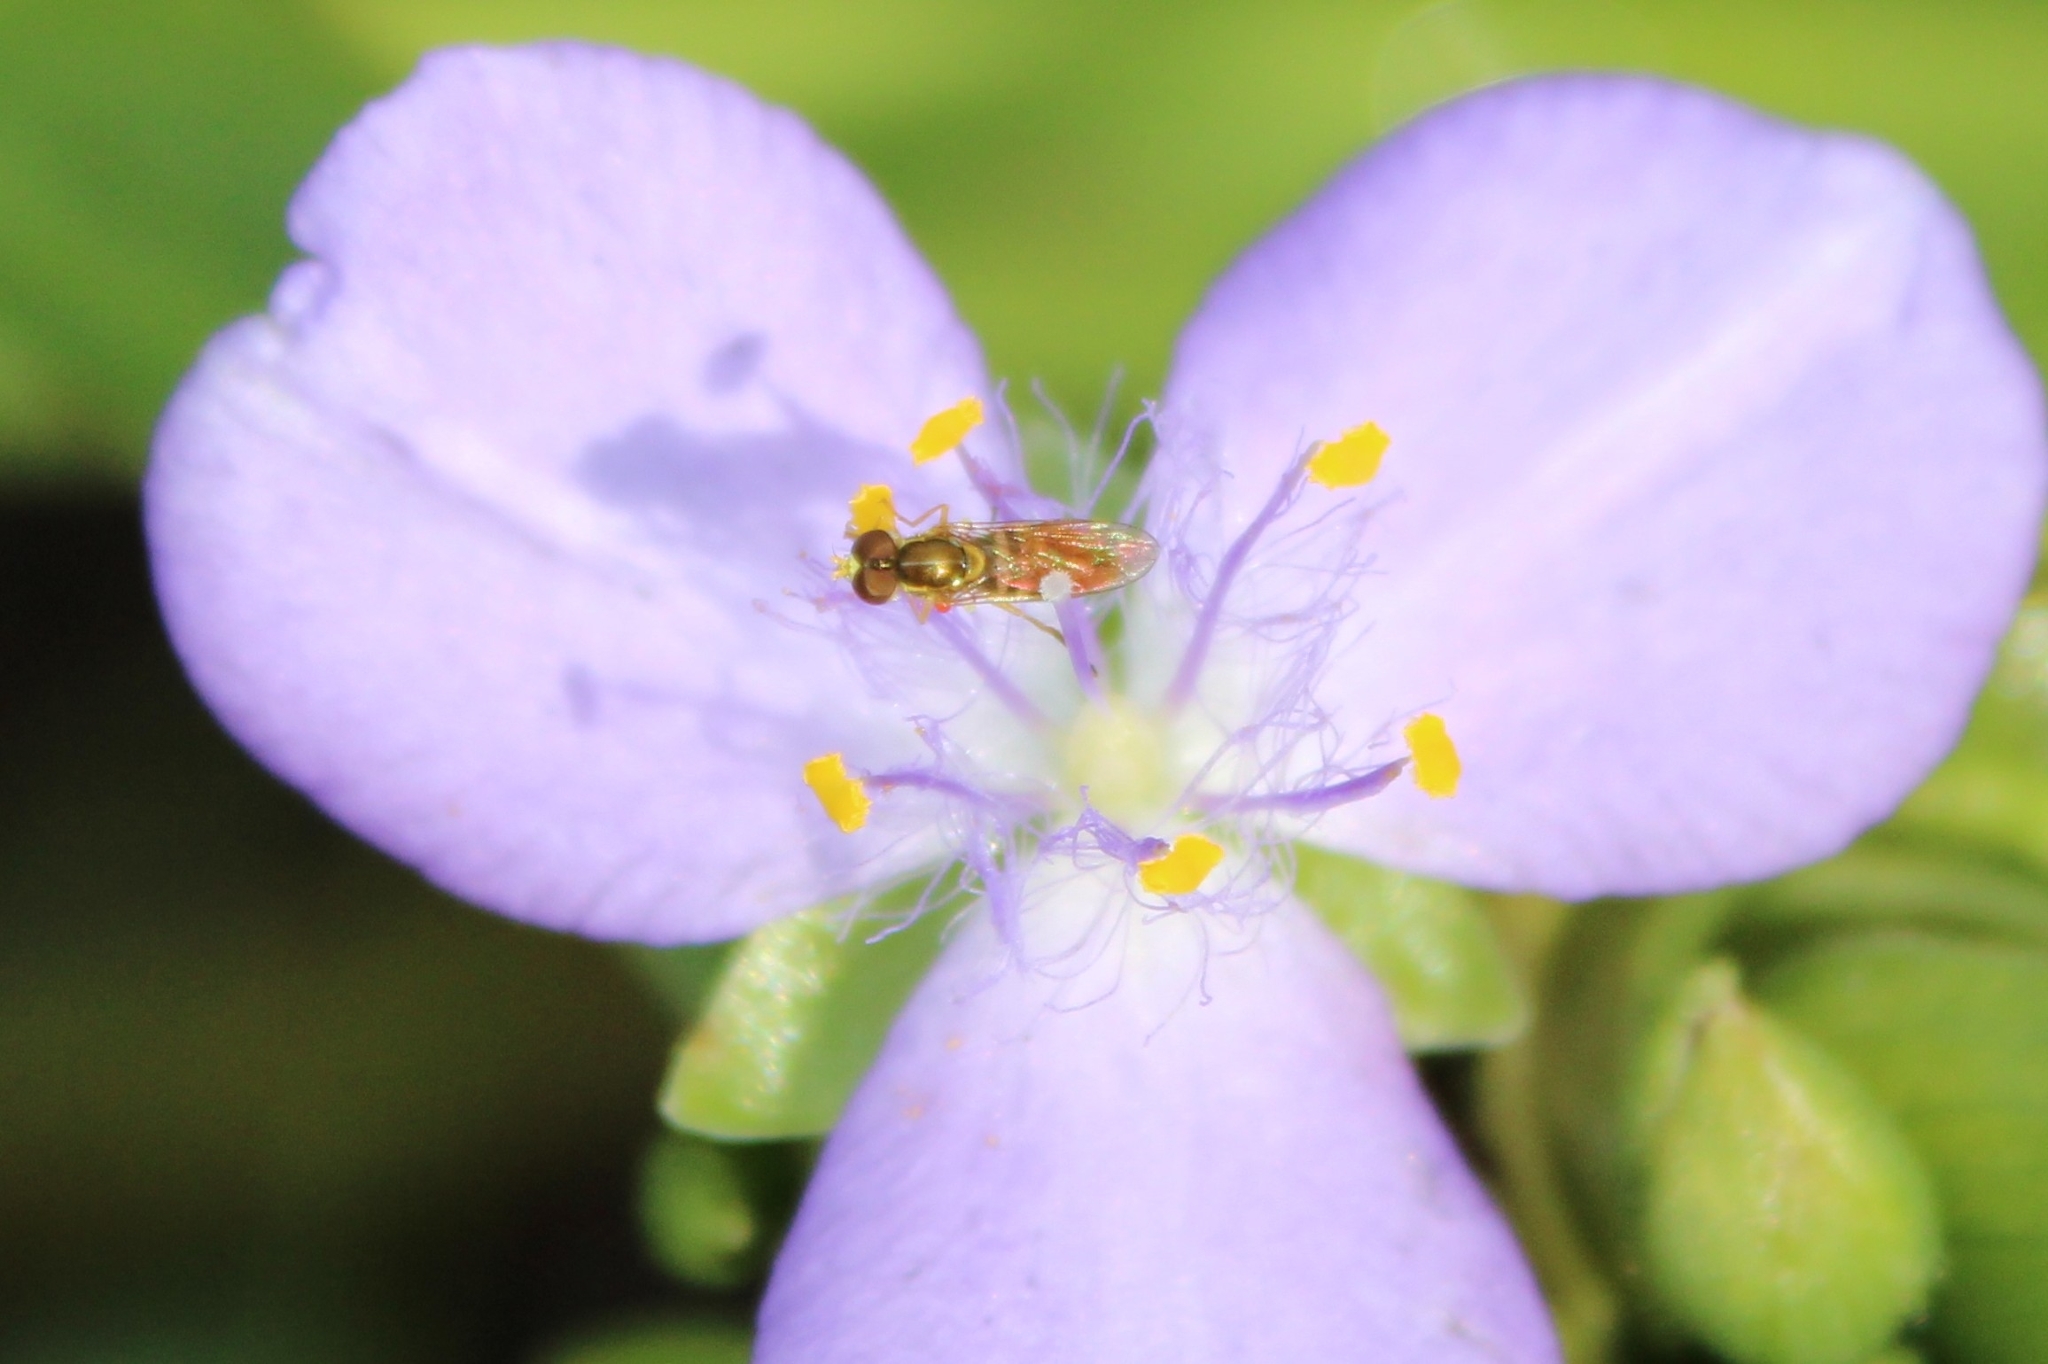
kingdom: Animalia
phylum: Arthropoda
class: Insecta
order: Diptera
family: Syrphidae
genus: Toxomerus
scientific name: Toxomerus marginatus
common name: Syrphid fly
